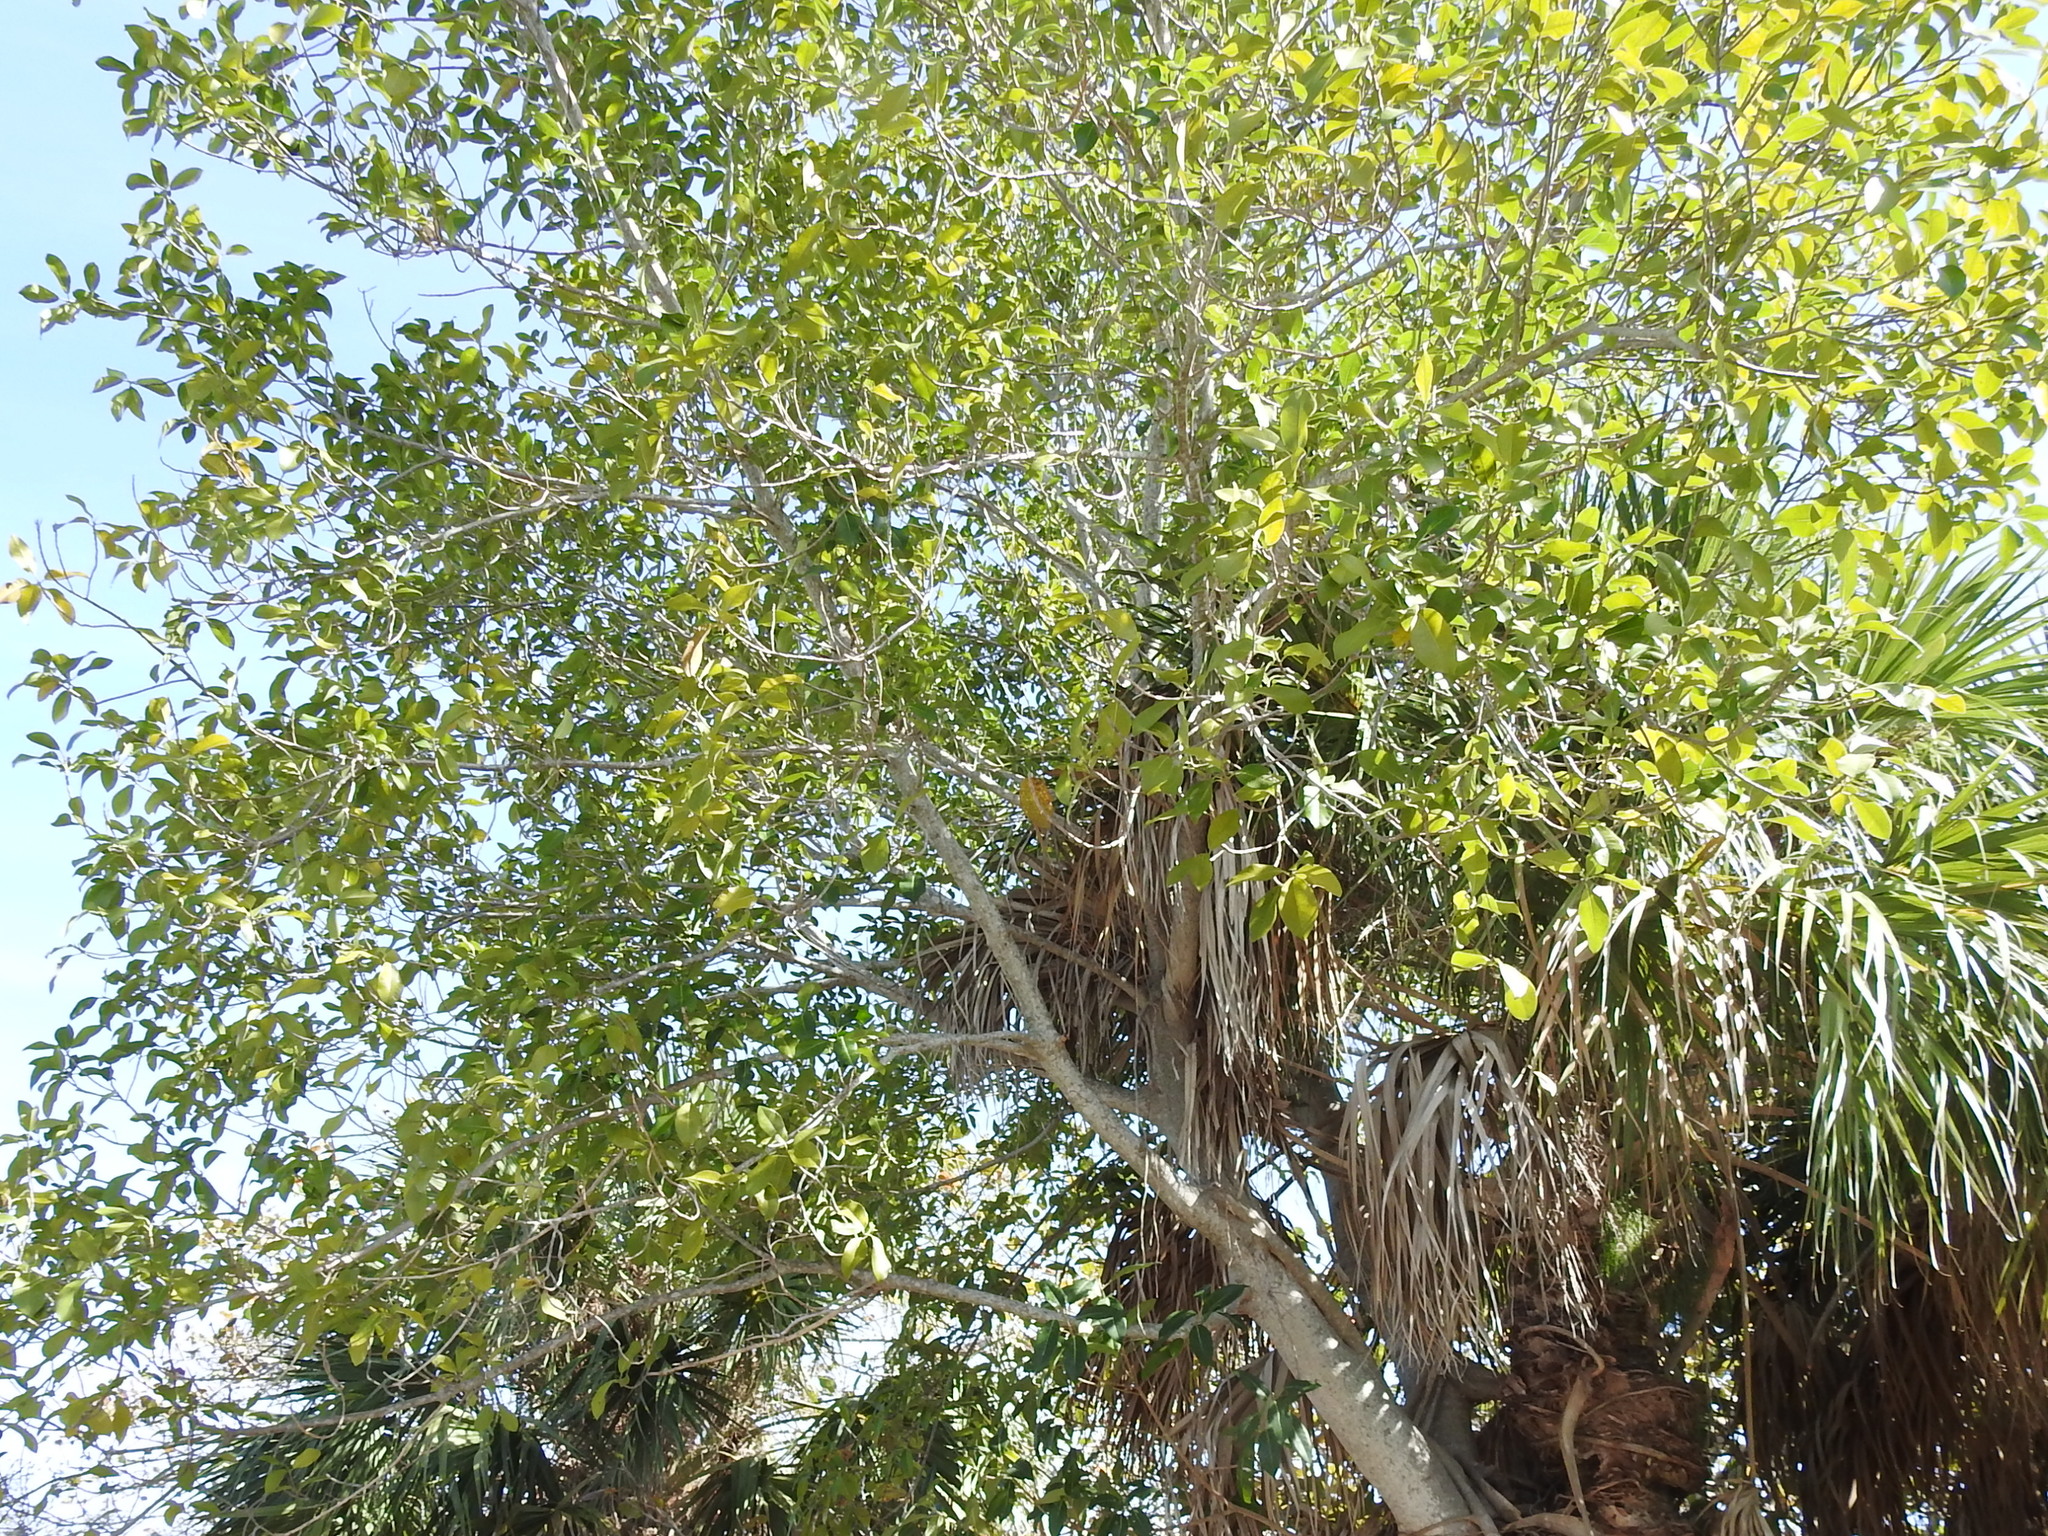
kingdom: Plantae
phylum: Tracheophyta
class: Magnoliopsida
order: Rosales
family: Moraceae
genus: Ficus
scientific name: Ficus aurea
